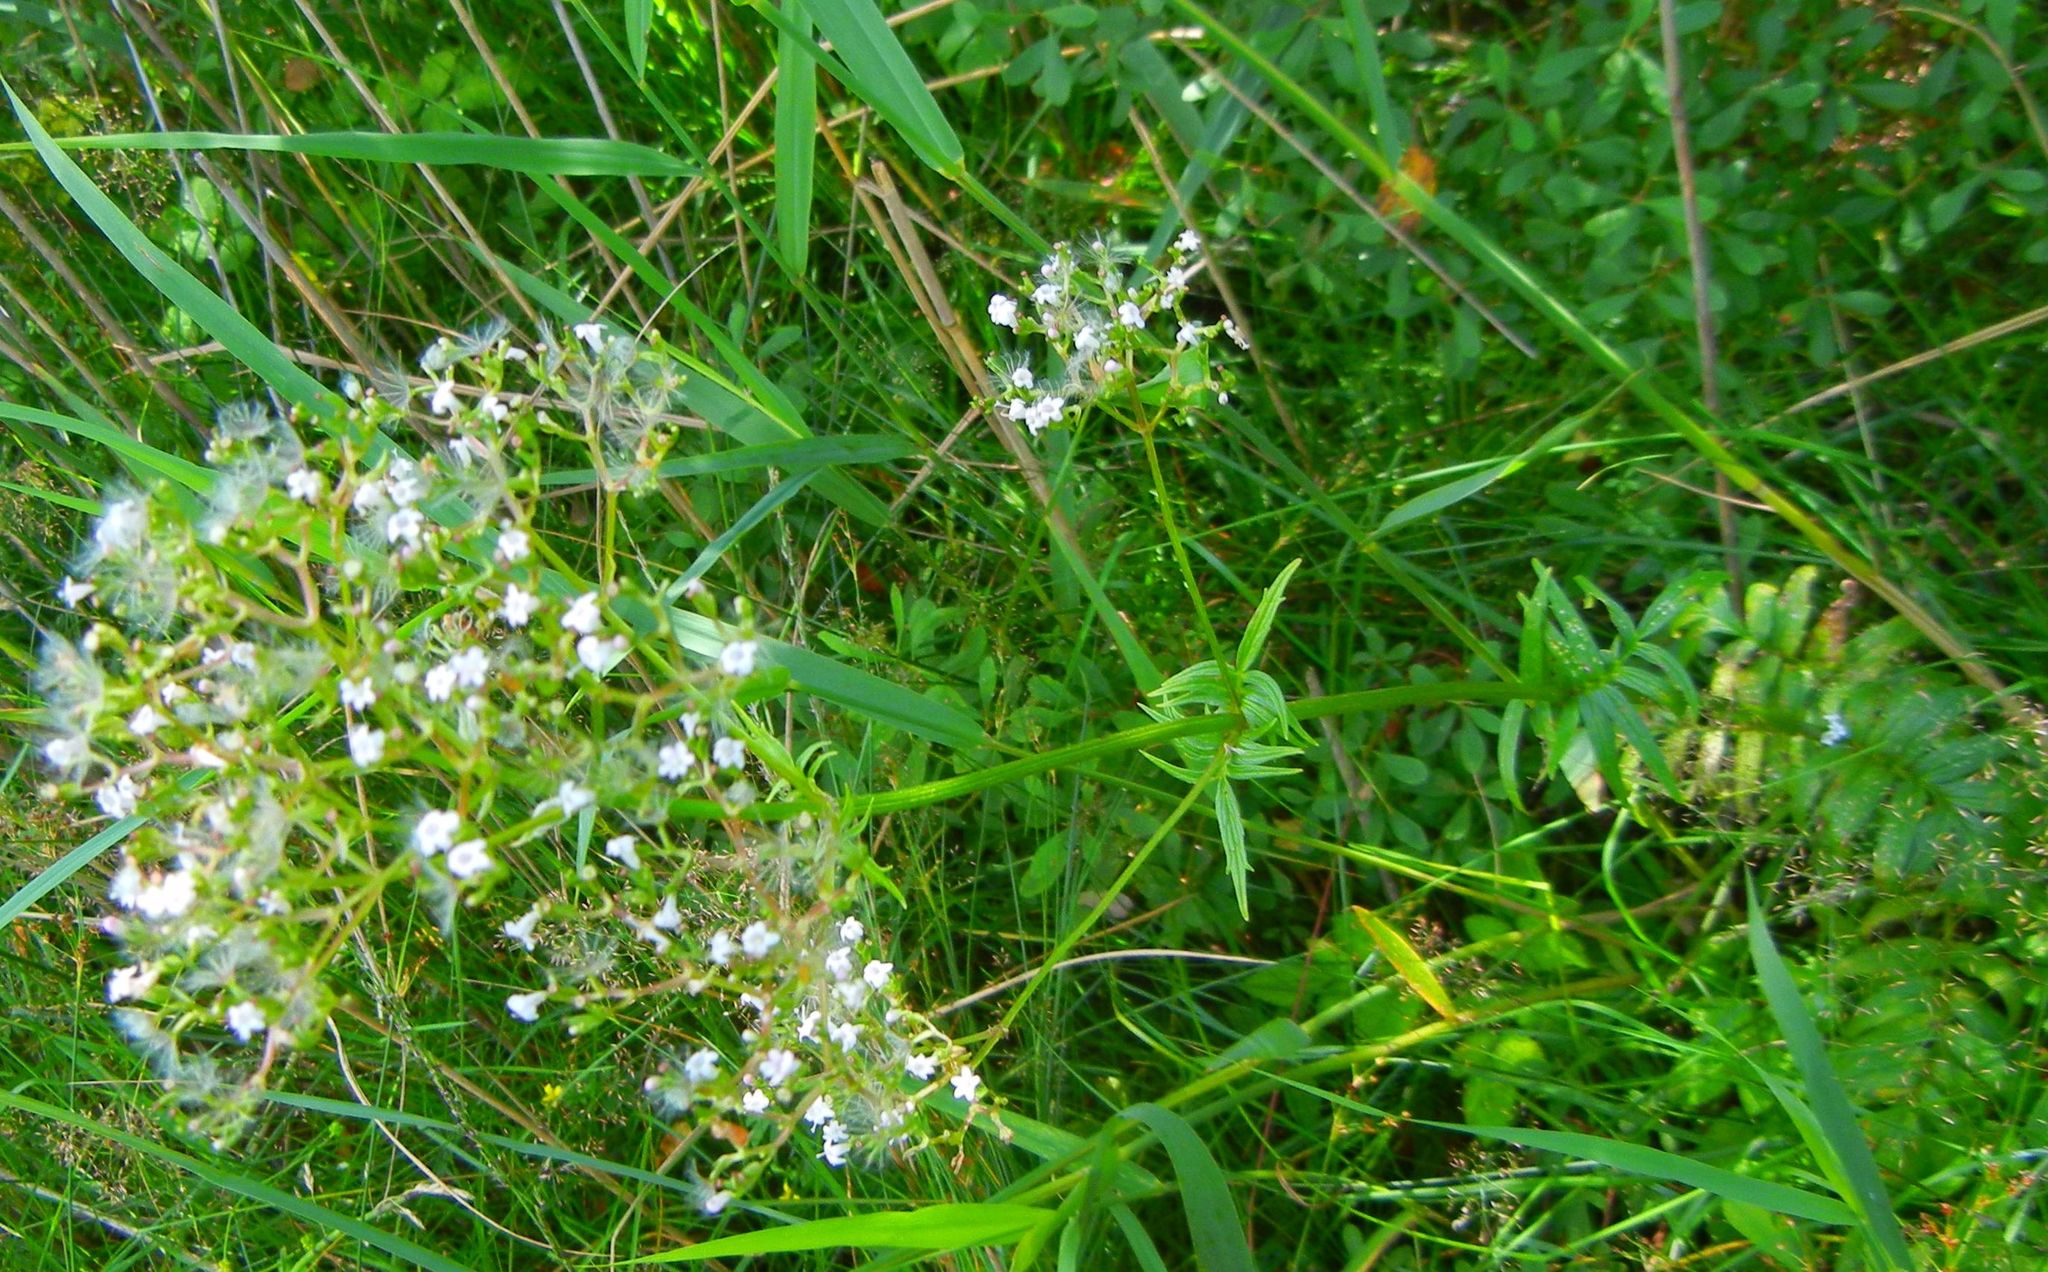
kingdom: Plantae
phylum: Tracheophyta
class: Magnoliopsida
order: Dipsacales
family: Caprifoliaceae
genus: Valeriana
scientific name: Valeriana officinalis
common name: Common valerian
